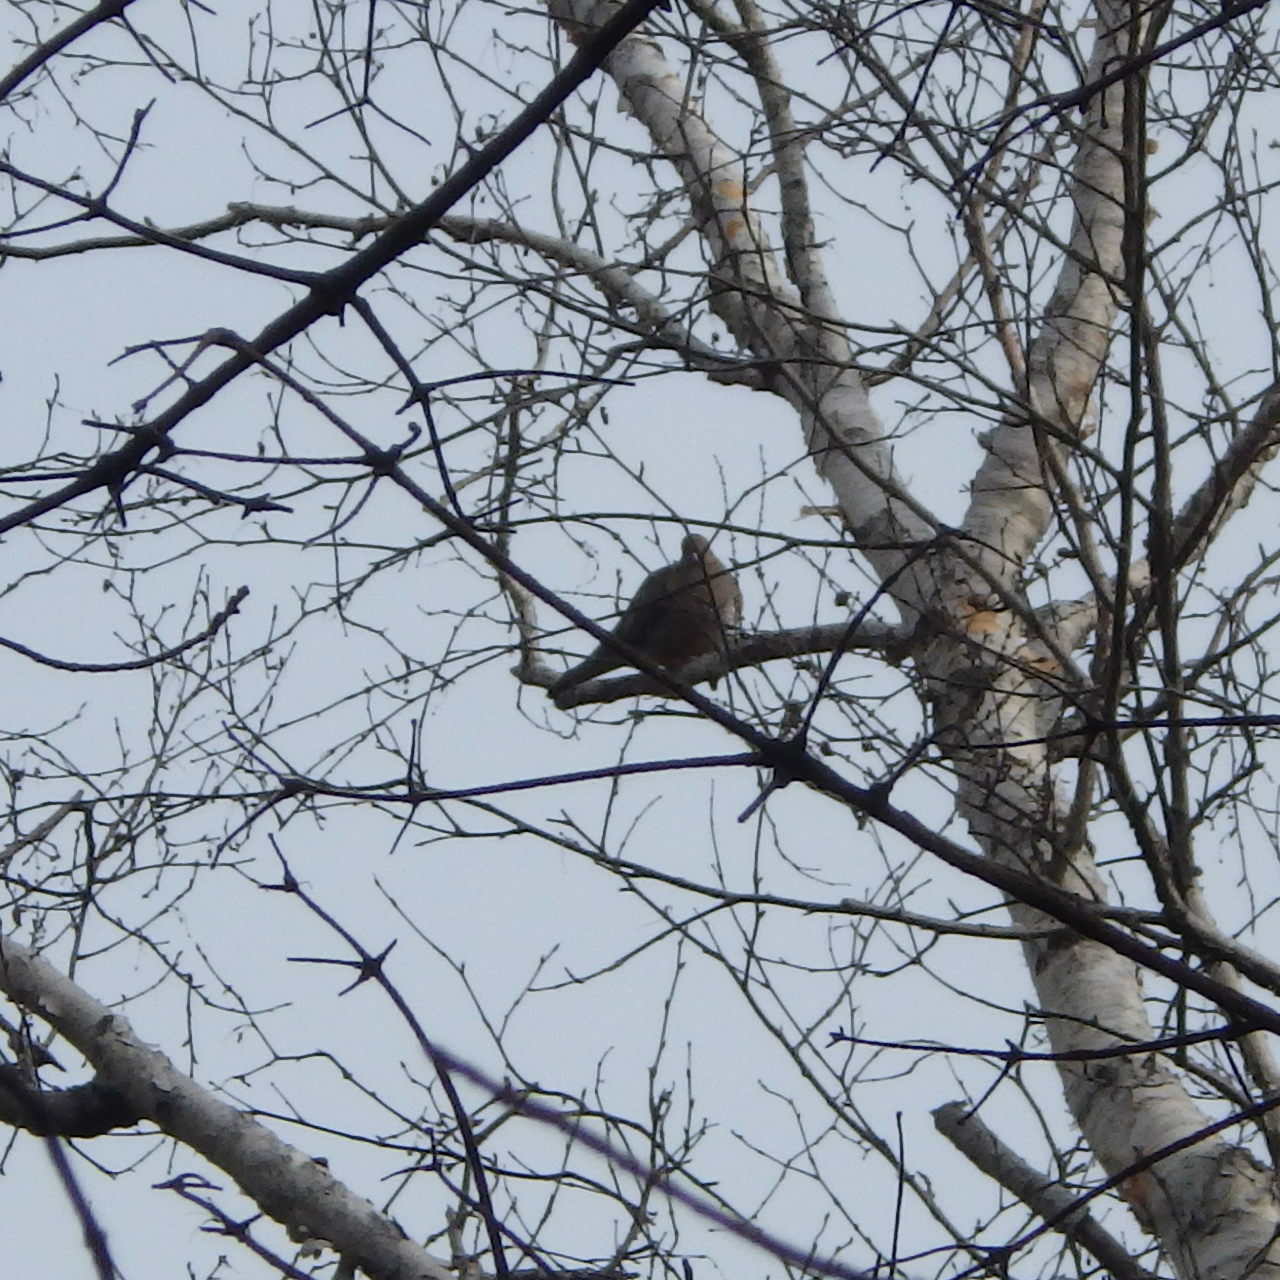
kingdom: Animalia
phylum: Chordata
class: Aves
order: Columbiformes
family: Columbidae
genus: Zenaida
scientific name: Zenaida macroura
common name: Mourning dove
